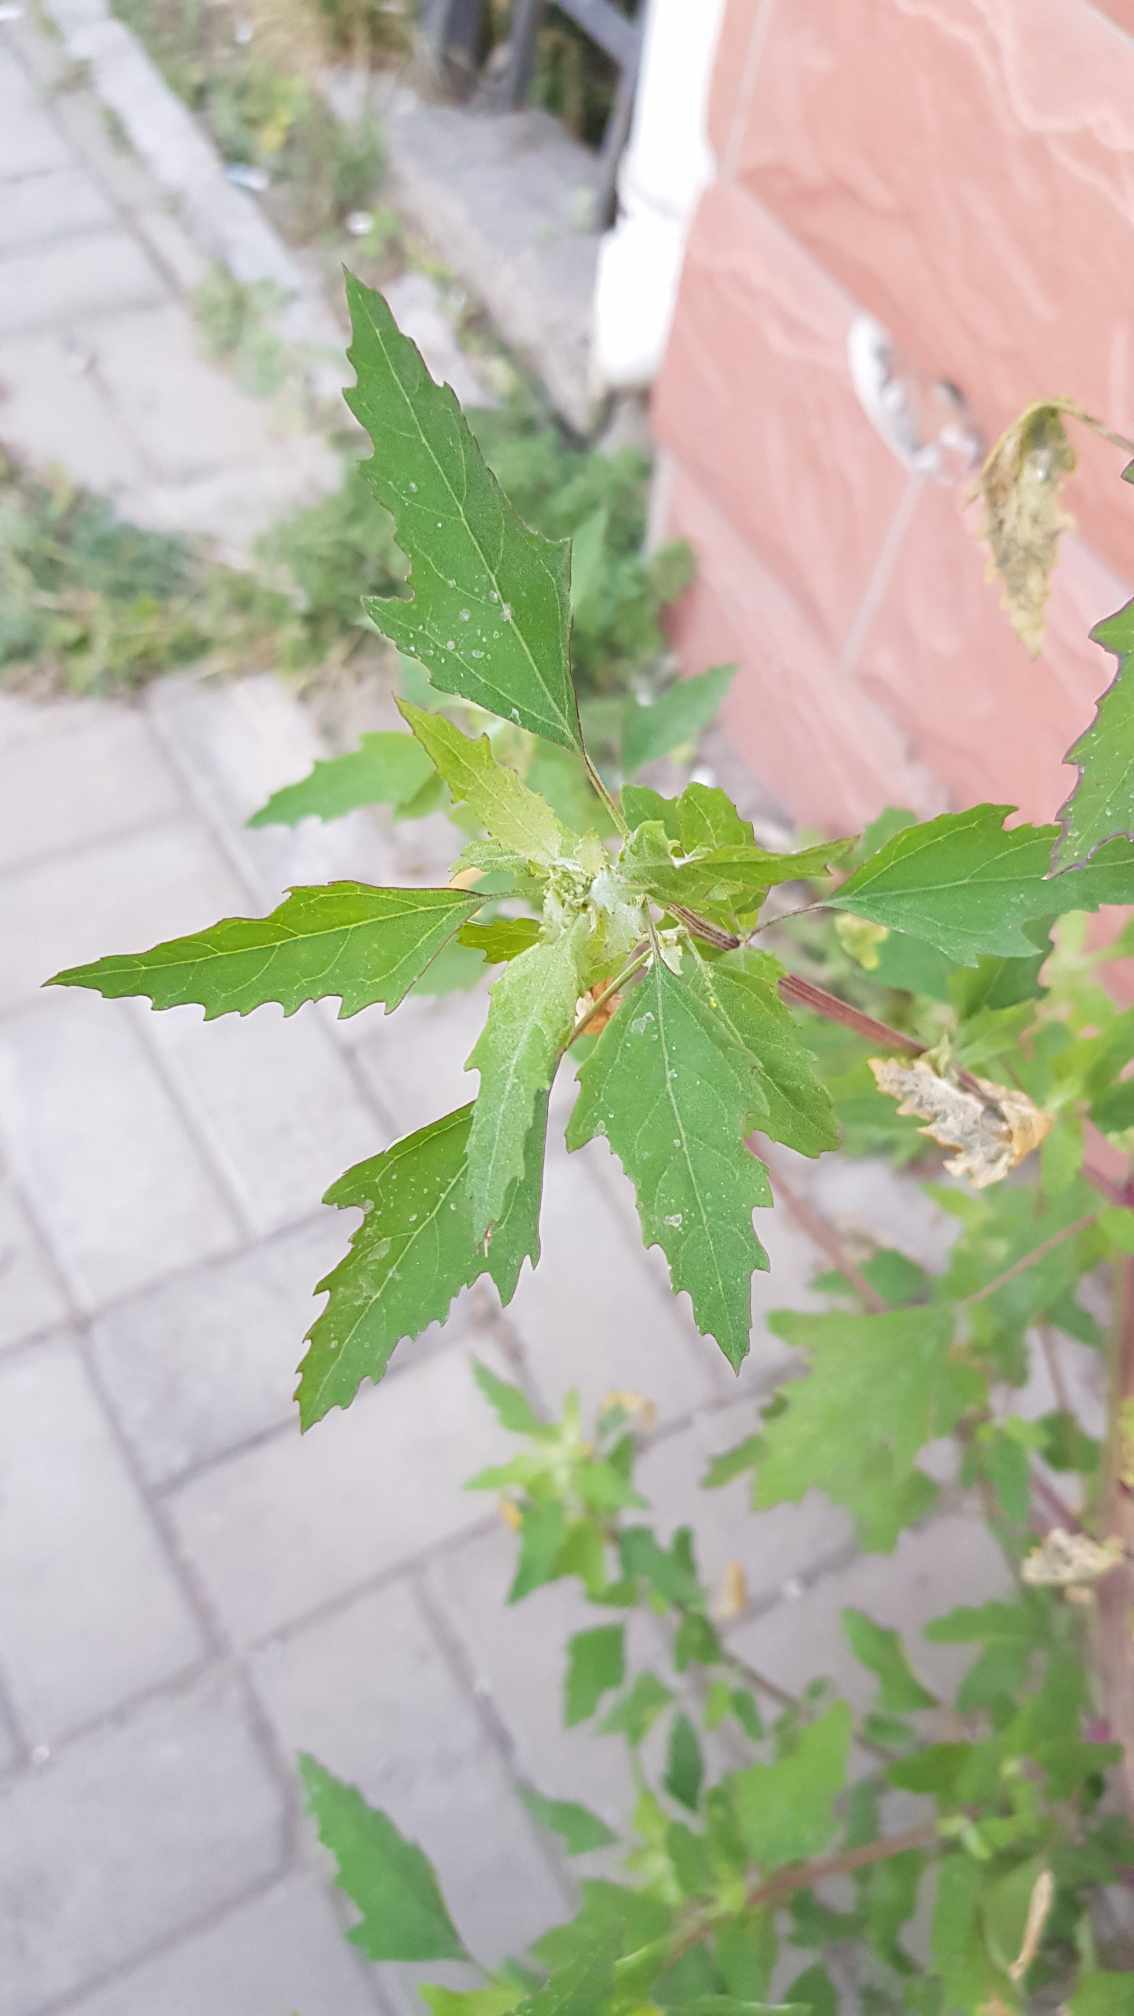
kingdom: Plantae
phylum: Tracheophyta
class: Magnoliopsida
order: Caryophyllales
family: Amaranthaceae
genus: Chenopodium
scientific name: Chenopodium ficifolium
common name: Fig-leaved goosefoot
